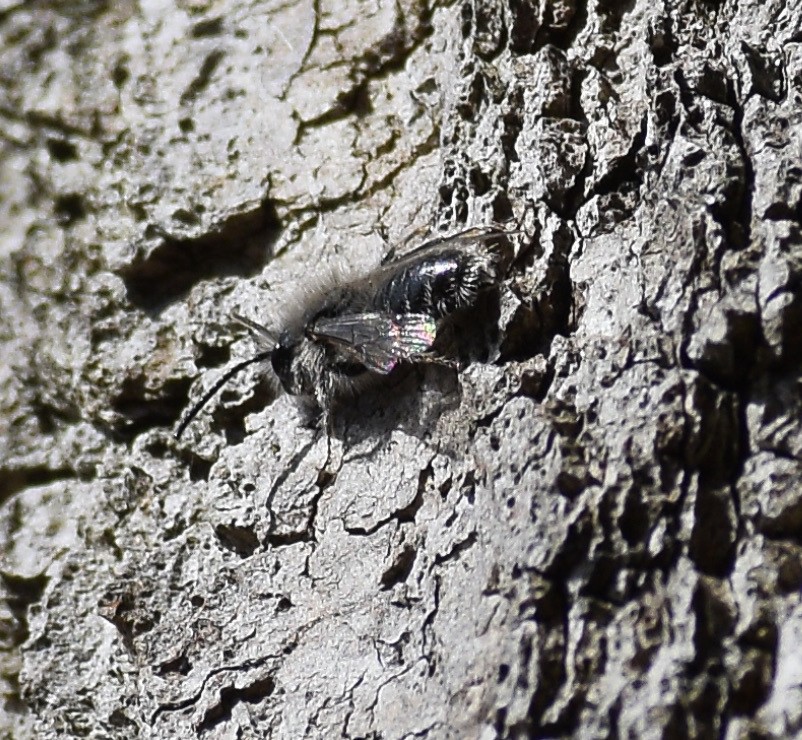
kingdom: Animalia
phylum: Arthropoda
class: Insecta
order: Hymenoptera
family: Andrenidae
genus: Andrena
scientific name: Andrena frigida
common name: Frigid mining bee
